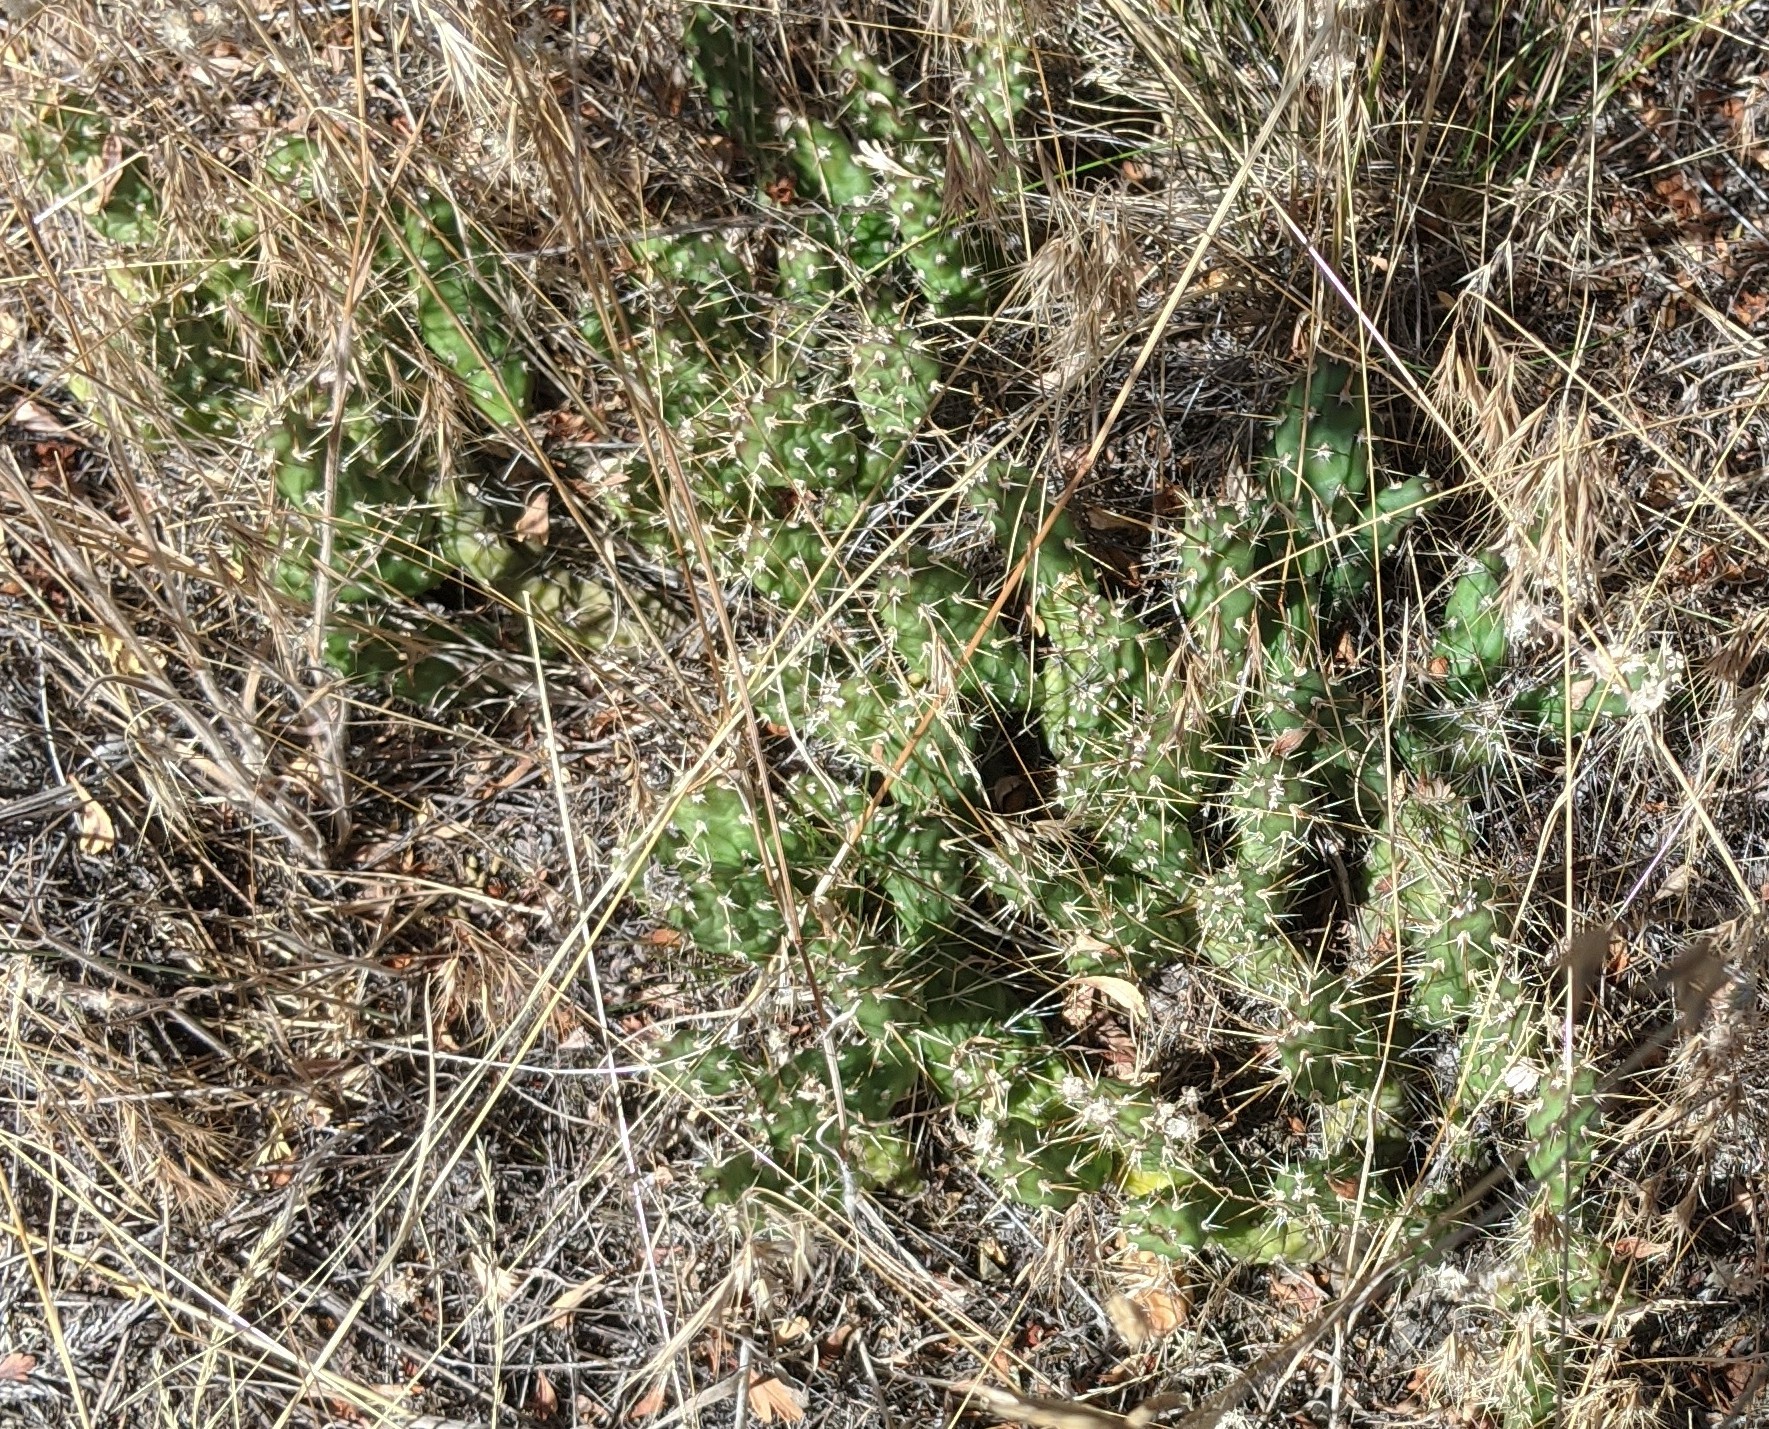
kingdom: Plantae
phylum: Tracheophyta
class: Magnoliopsida
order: Caryophyllales
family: Cactaceae
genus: Opuntia
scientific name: Opuntia fragilis
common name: Brittle cactus
